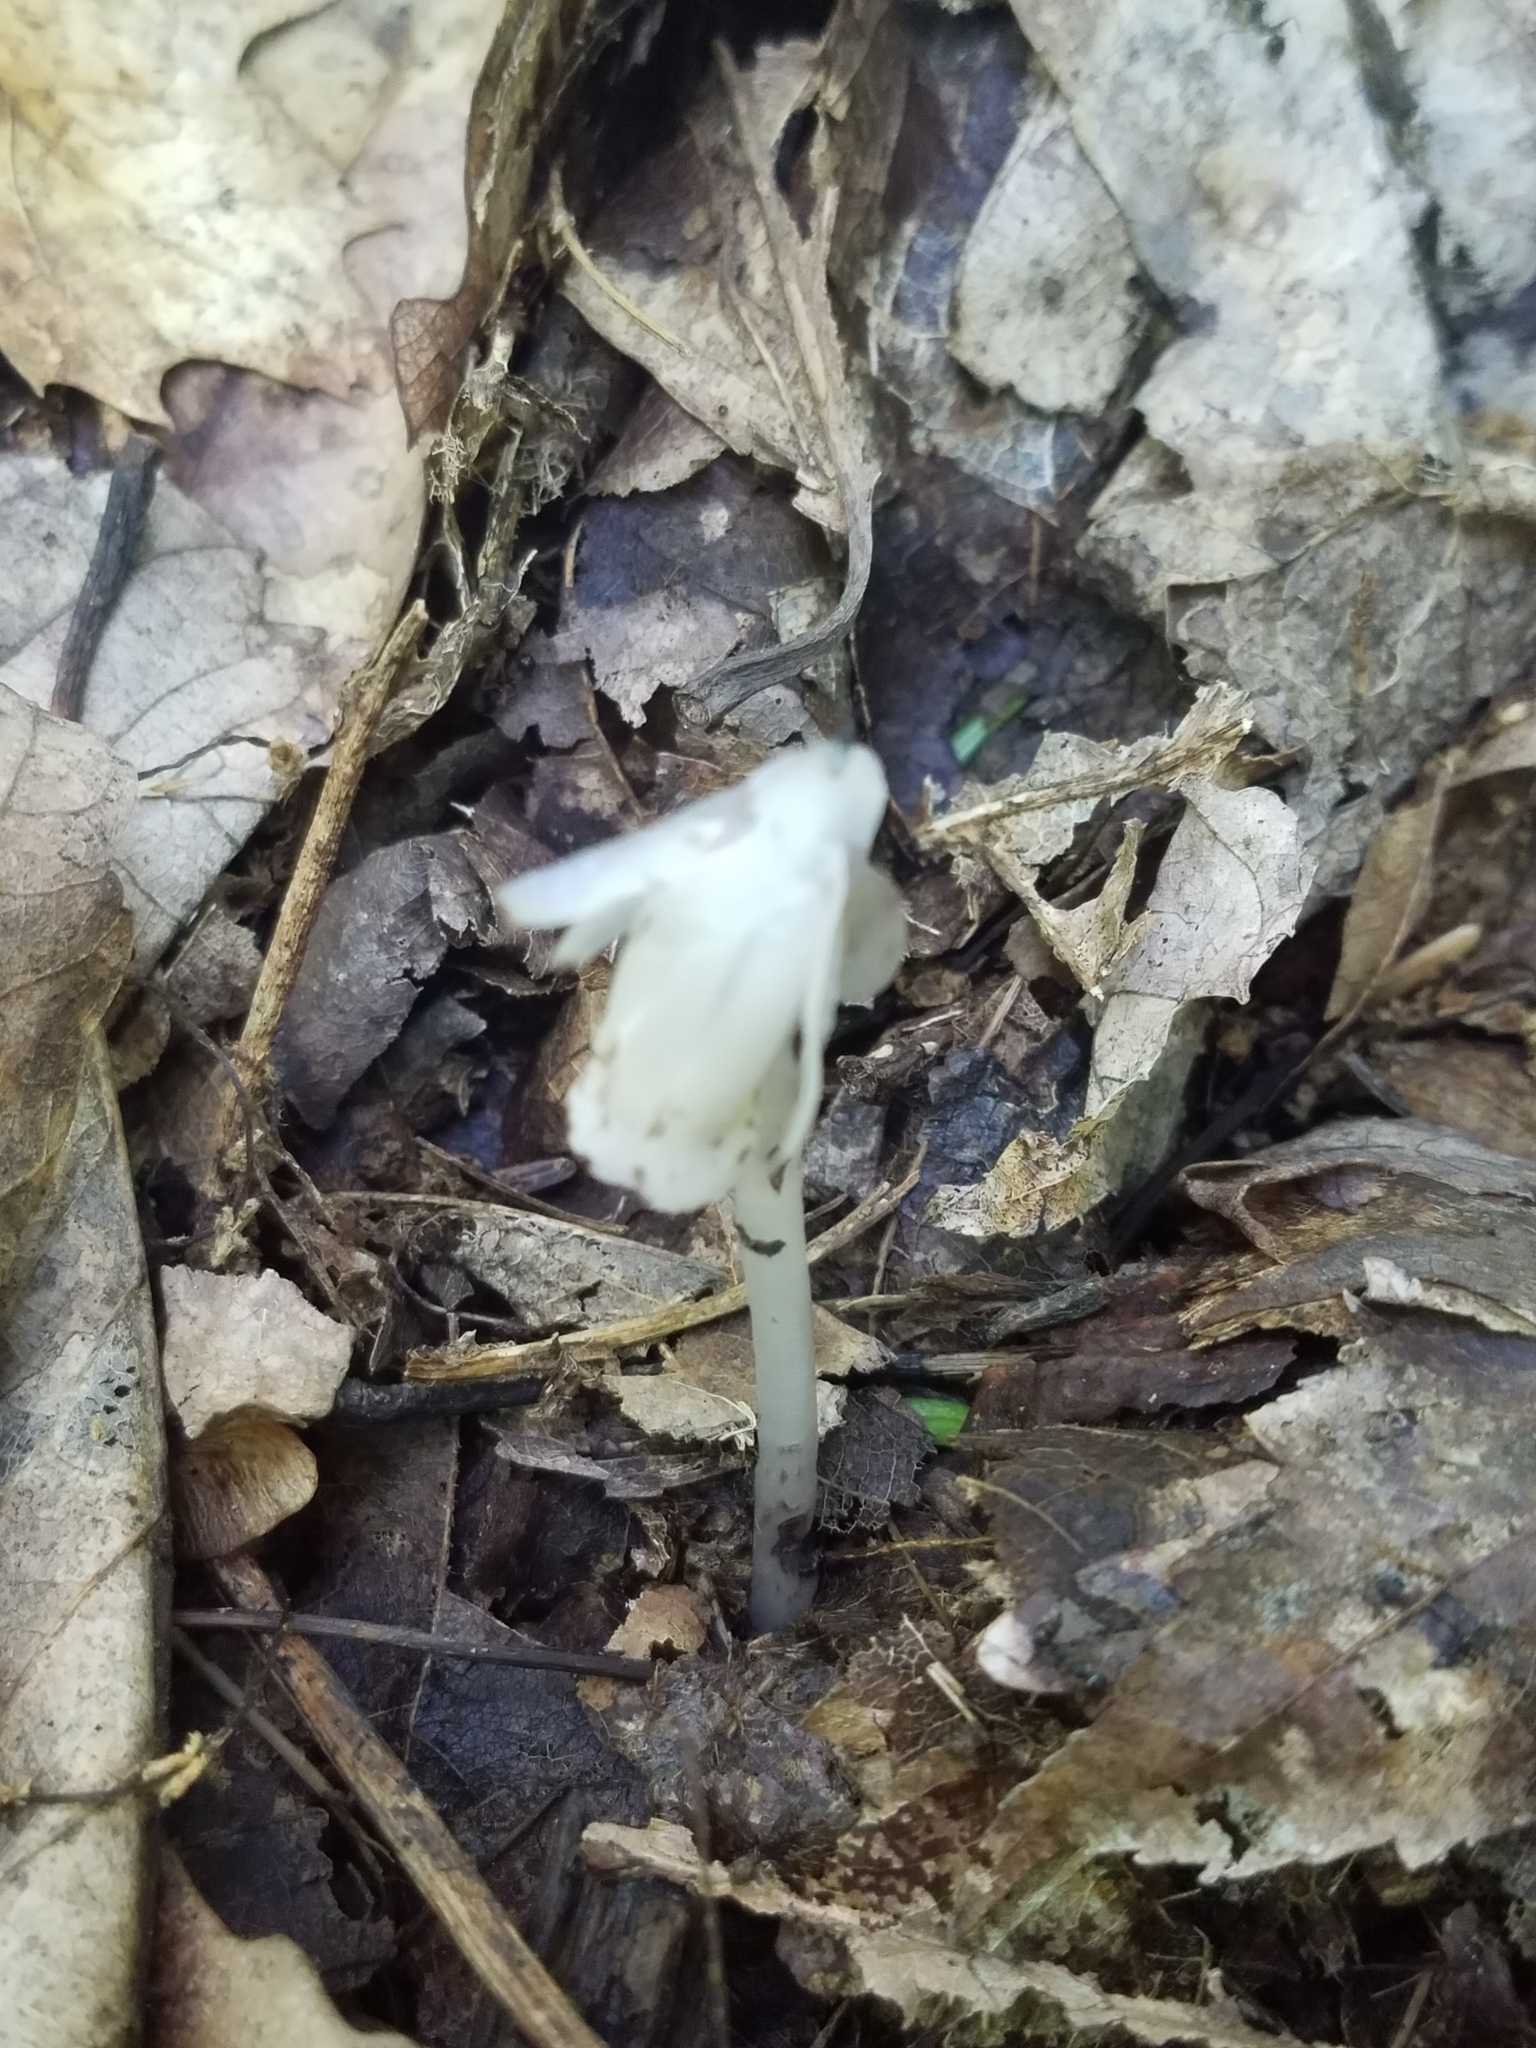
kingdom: Plantae
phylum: Tracheophyta
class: Magnoliopsida
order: Ericales
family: Ericaceae
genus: Monotropa
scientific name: Monotropa uniflora
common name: Convulsion root
